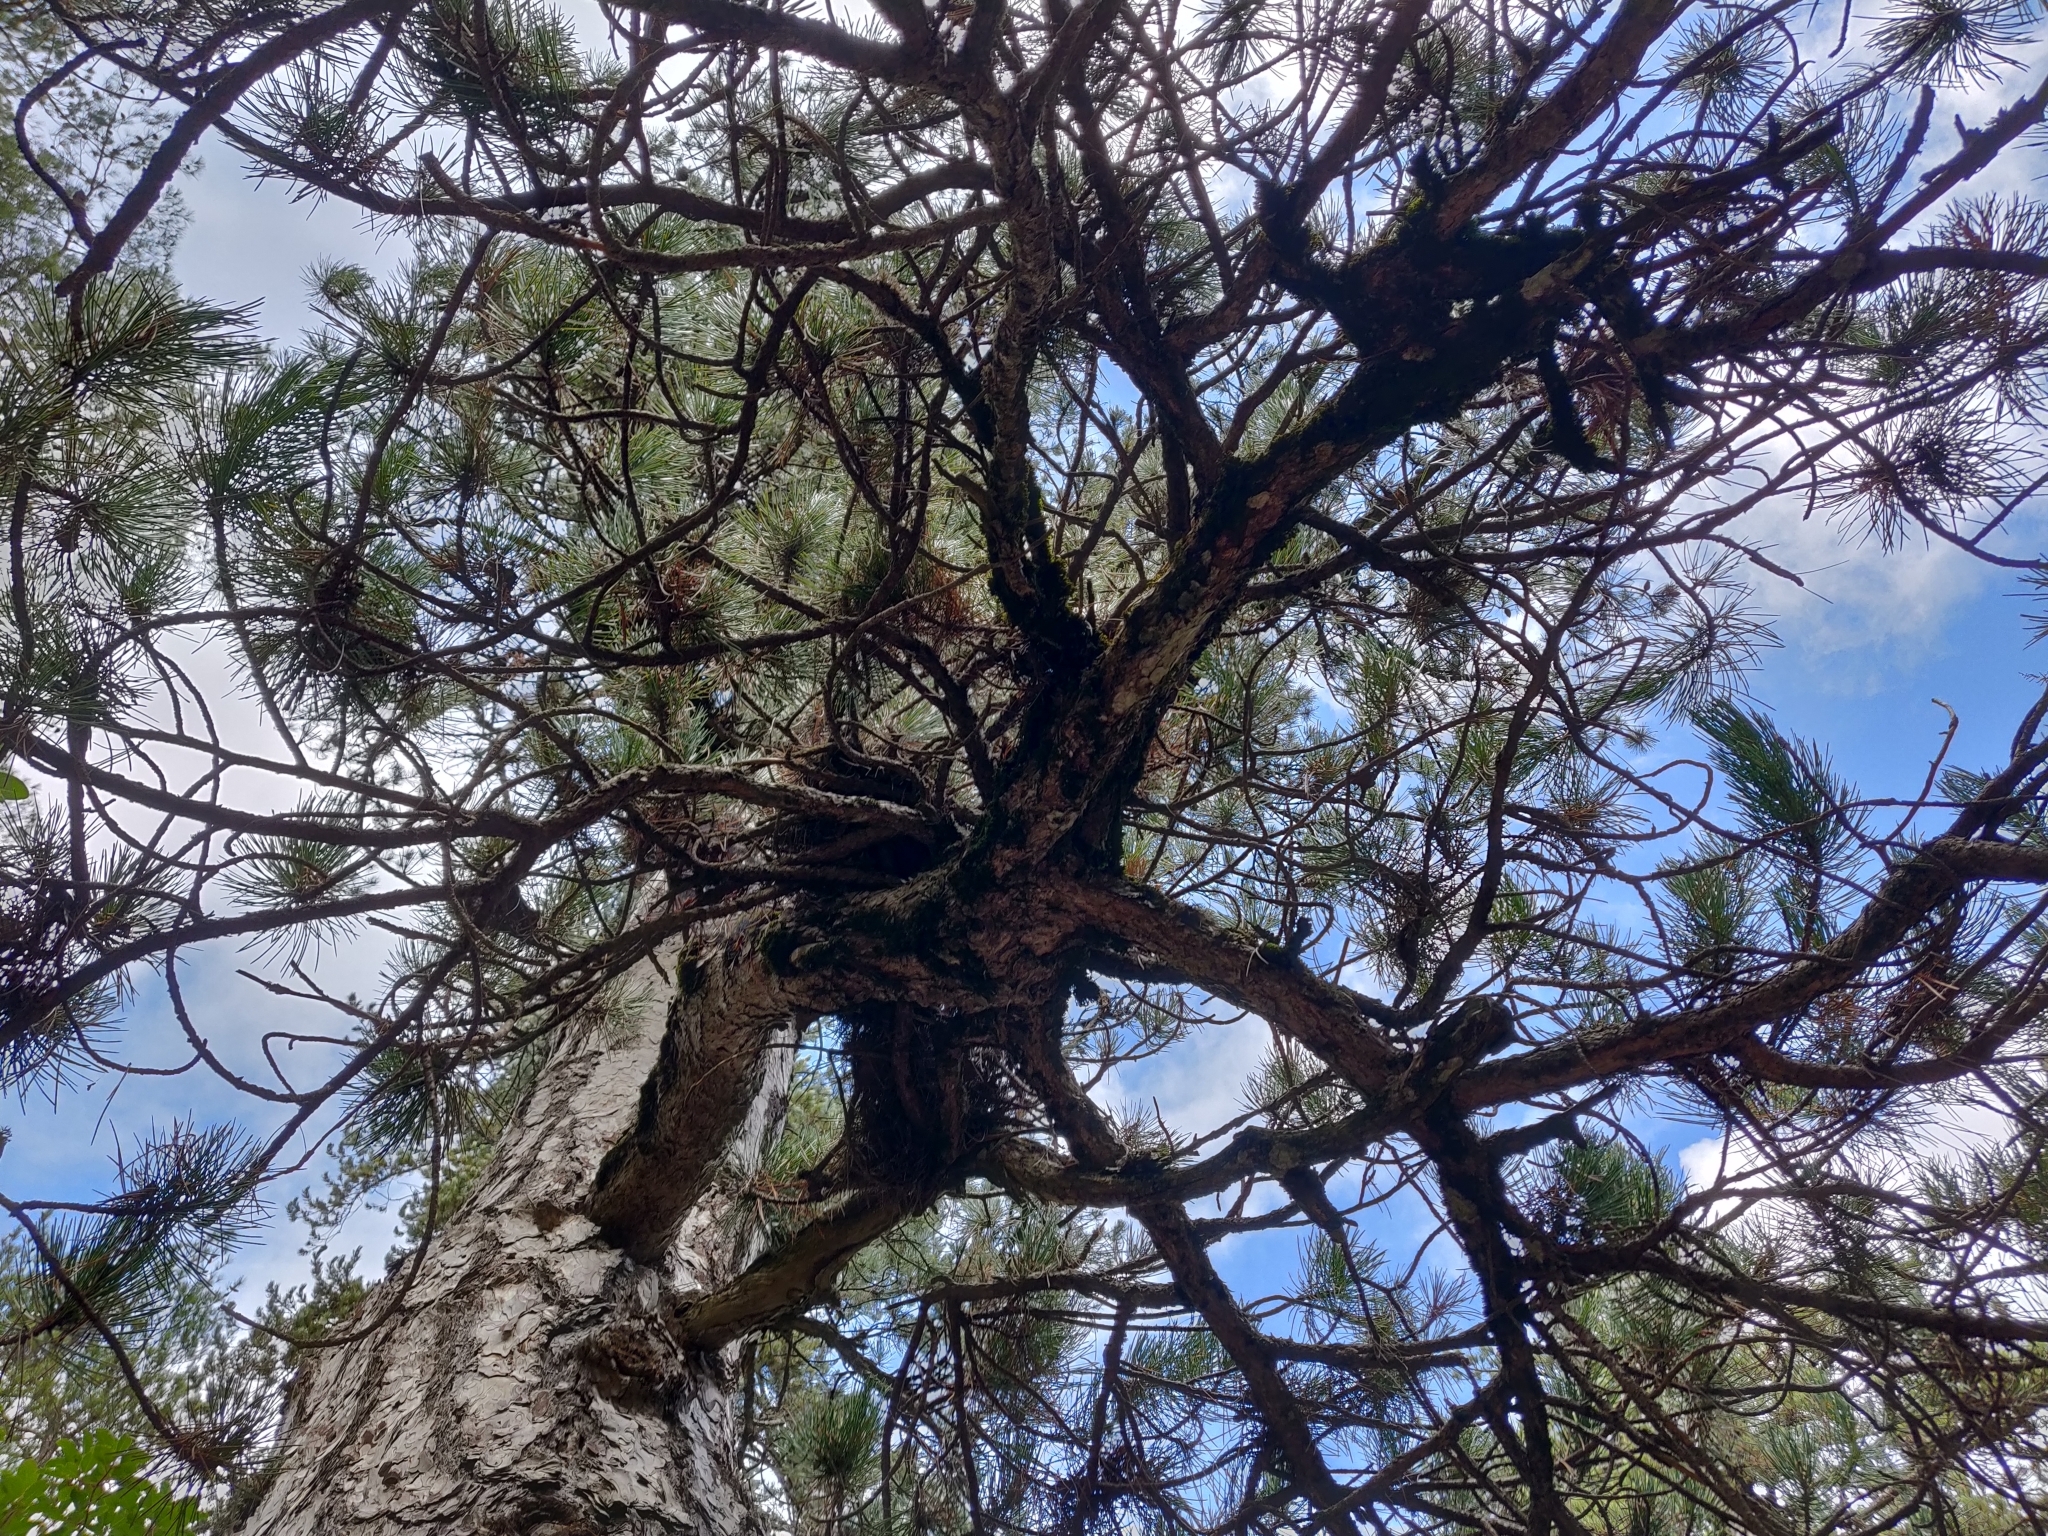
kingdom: Plantae
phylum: Tracheophyta
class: Pinopsida
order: Pinales
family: Pinaceae
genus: Pinus
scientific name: Pinus nigra
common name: Austrian pine
